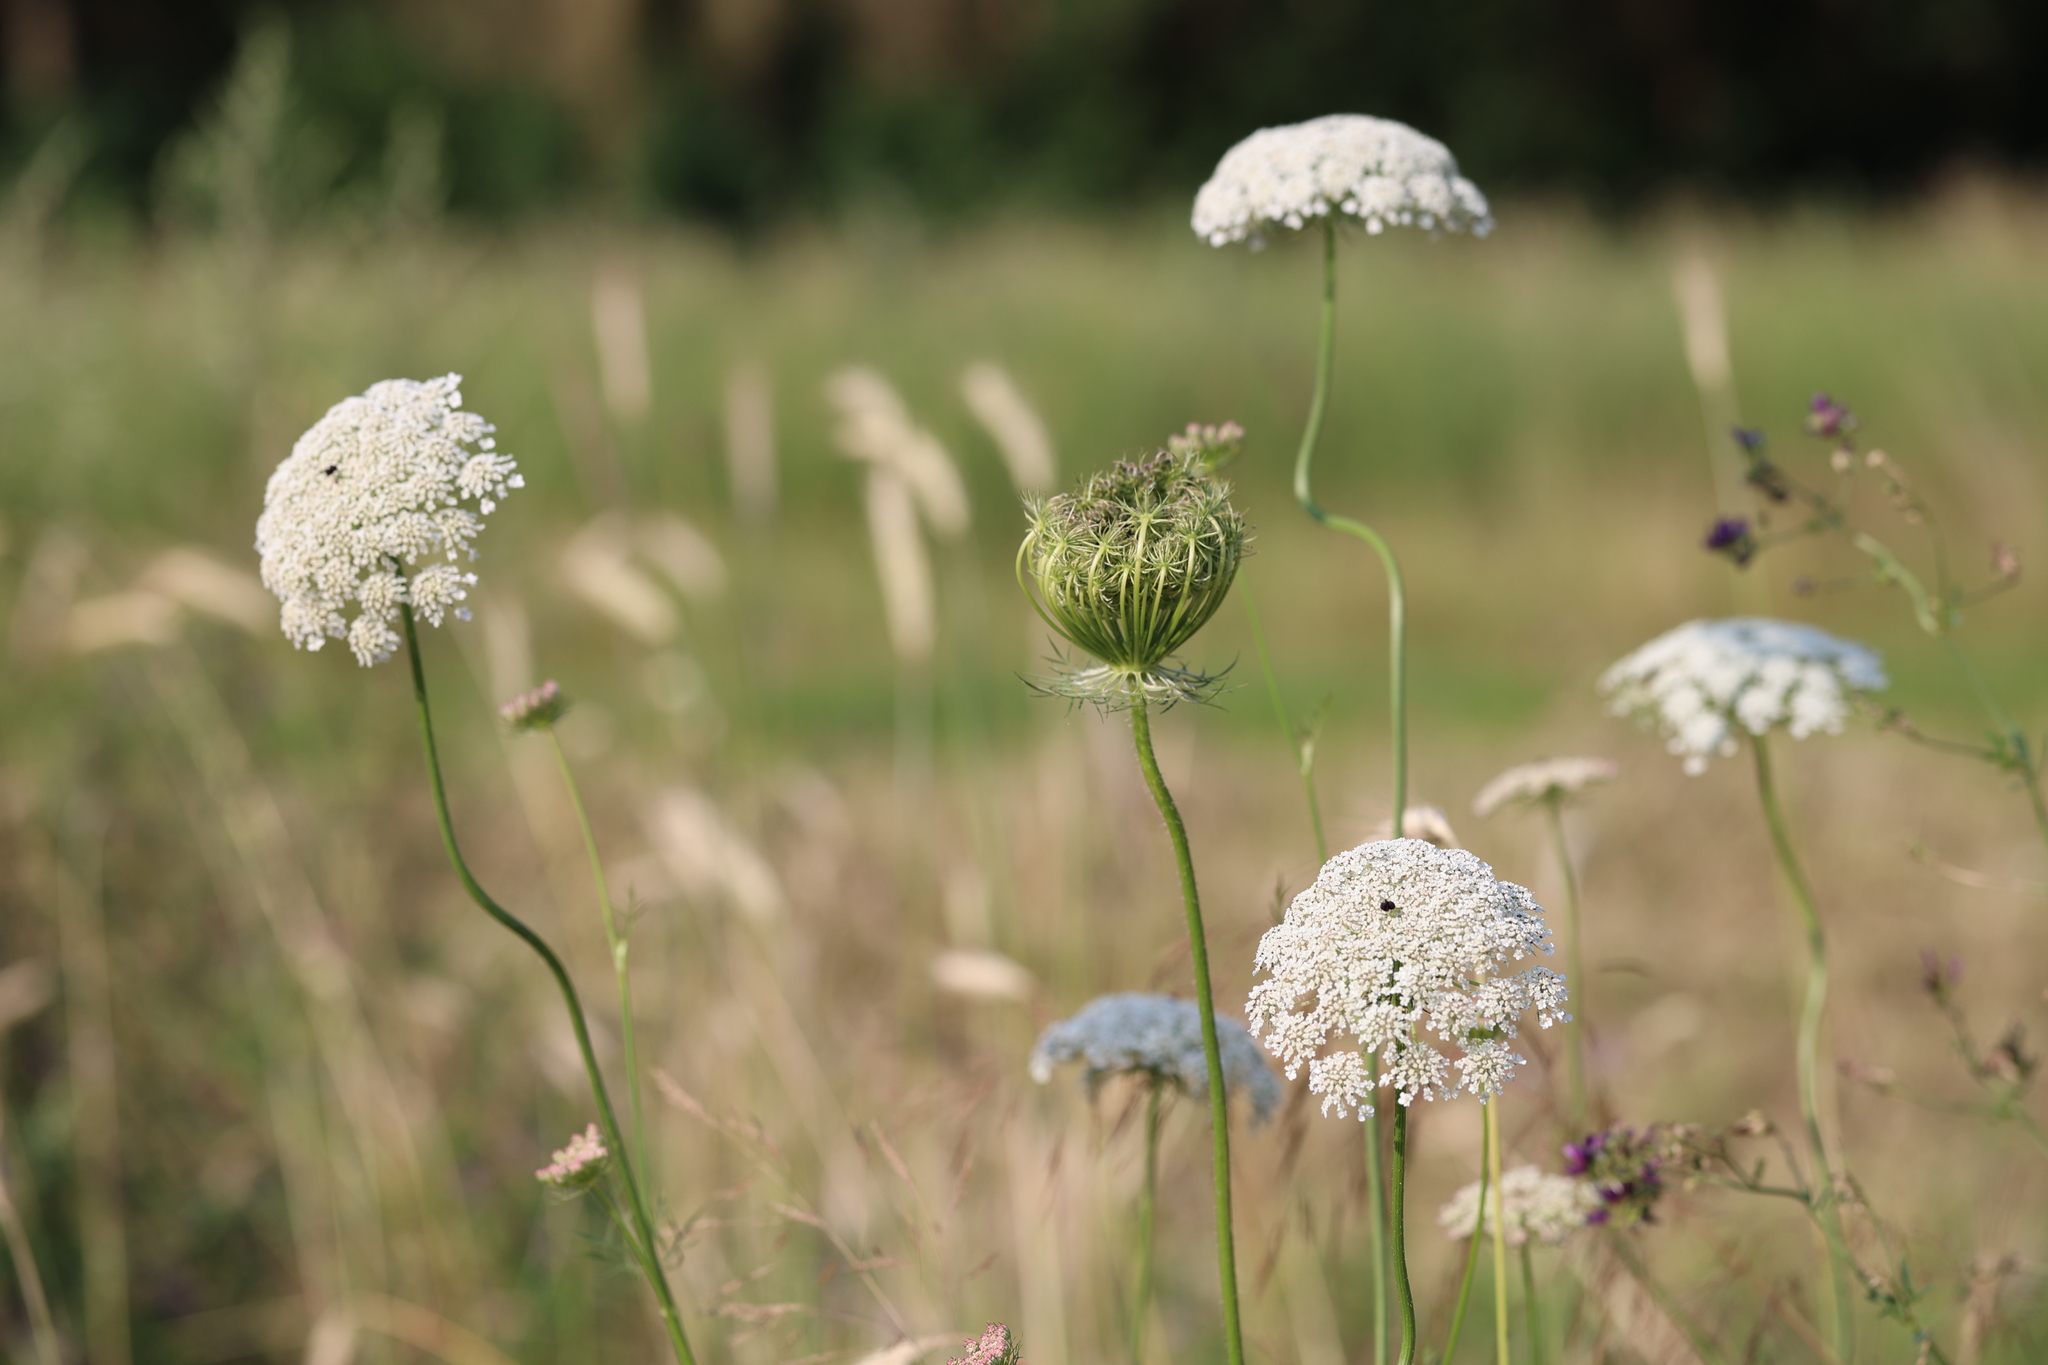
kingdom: Plantae
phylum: Tracheophyta
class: Magnoliopsida
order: Apiales
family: Apiaceae
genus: Daucus
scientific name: Daucus carota
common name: Wild carrot
